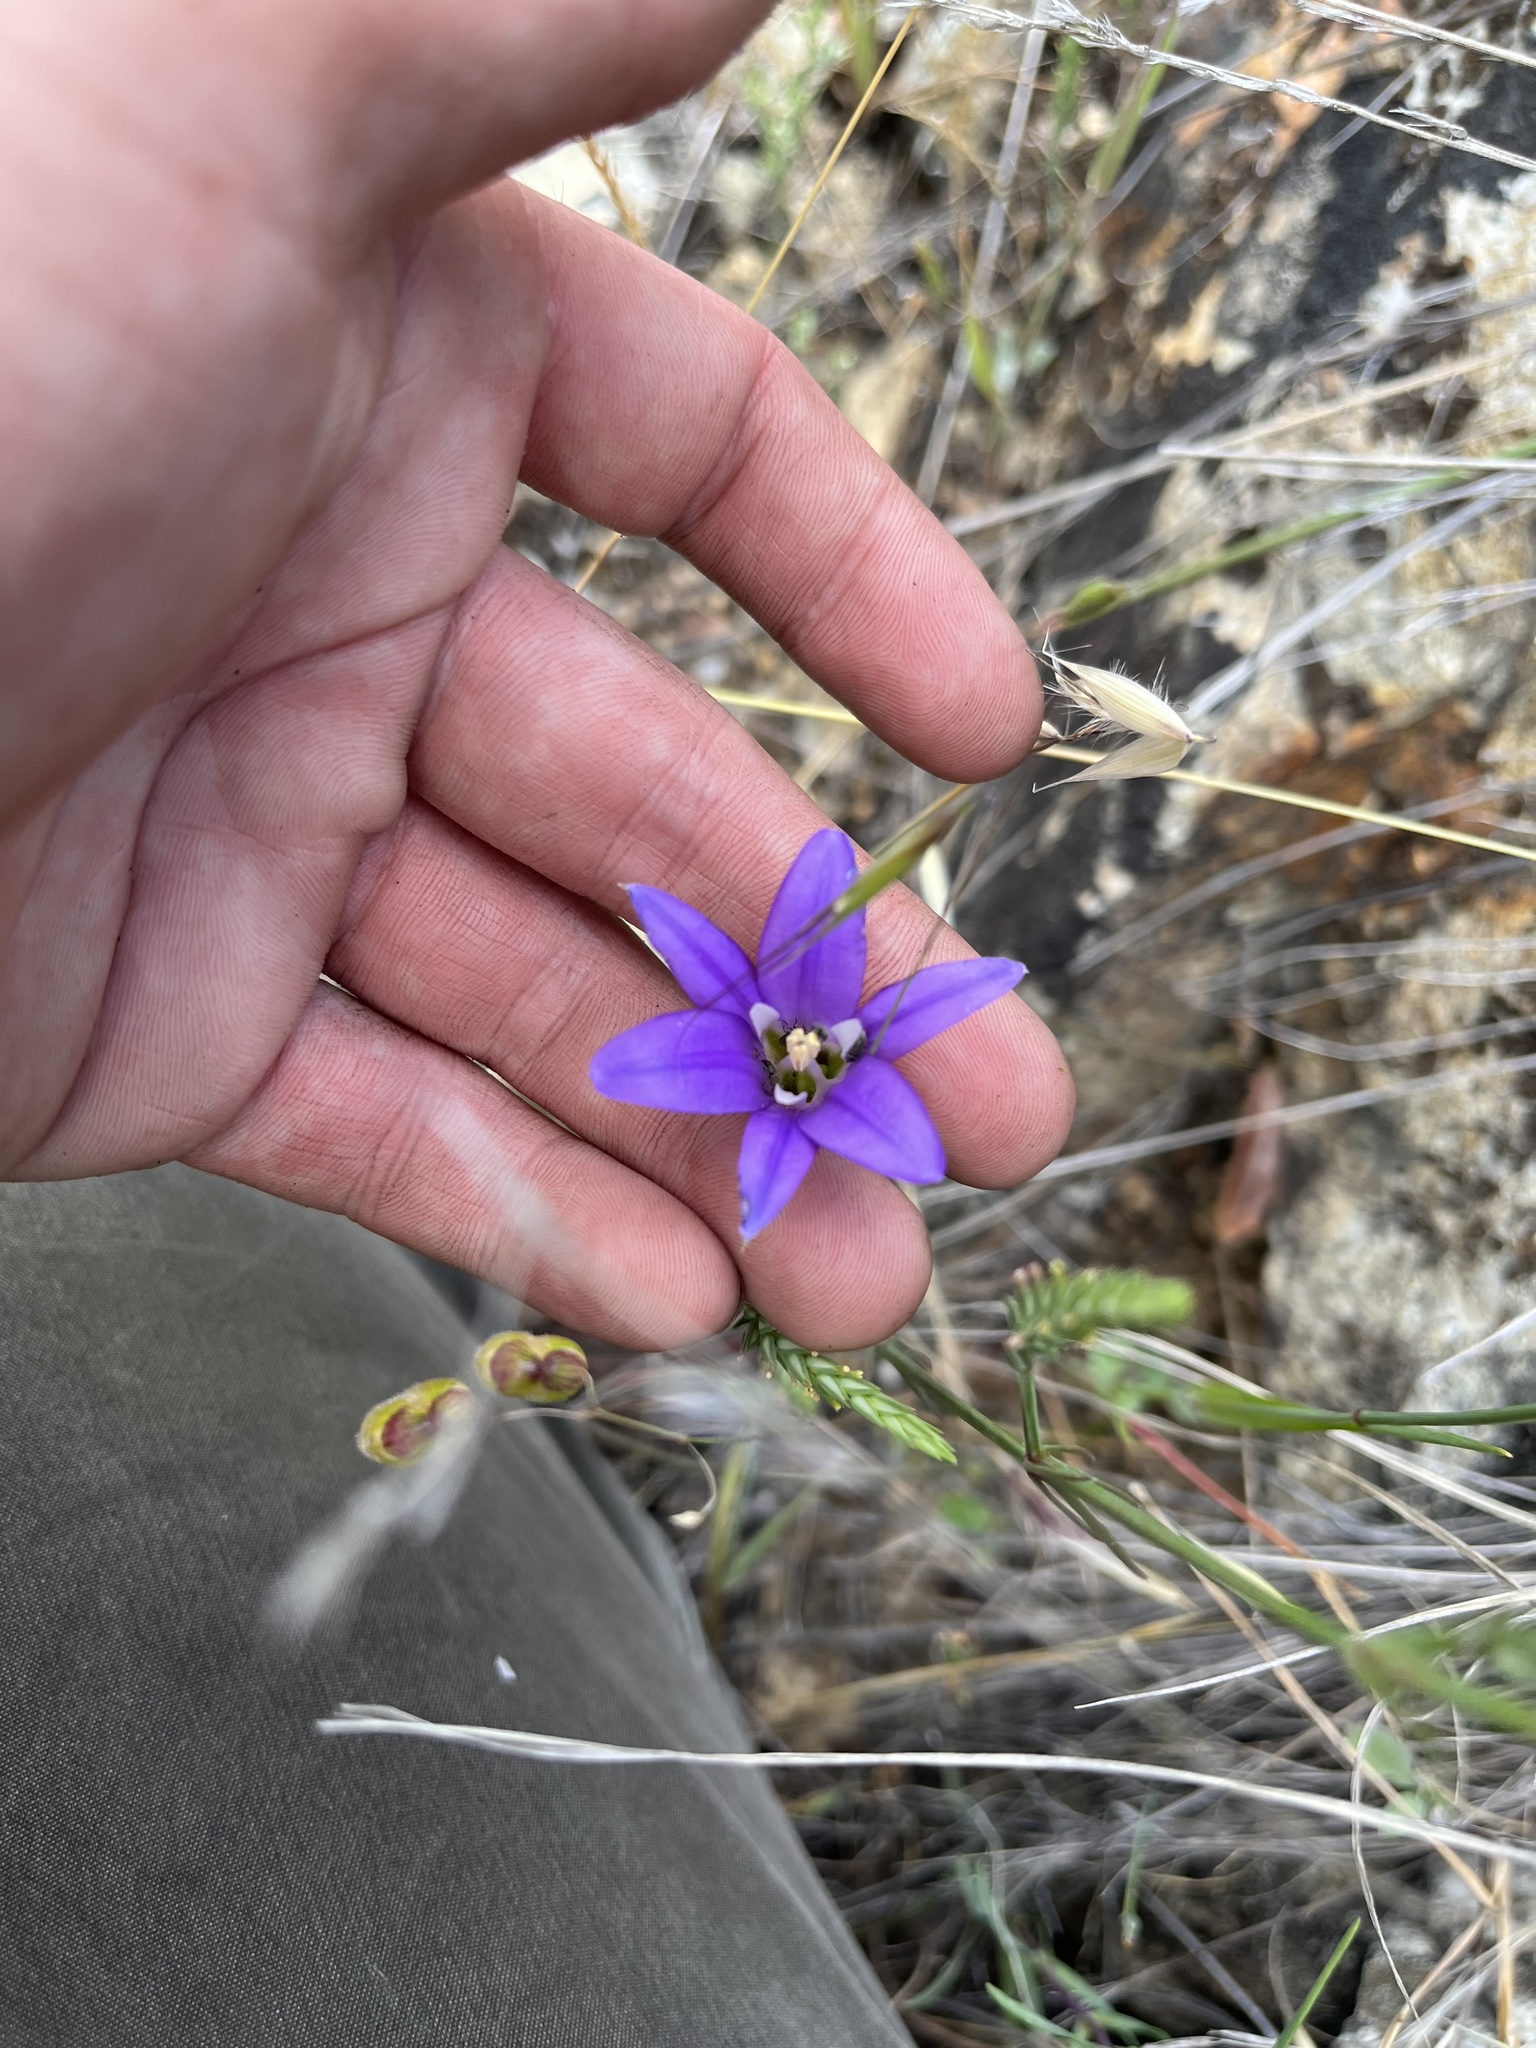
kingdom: Plantae
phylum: Tracheophyta
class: Liliopsida
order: Asparagales
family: Asparagaceae
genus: Brodiaea
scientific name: Brodiaea elegans
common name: Elegant cluster-lily
